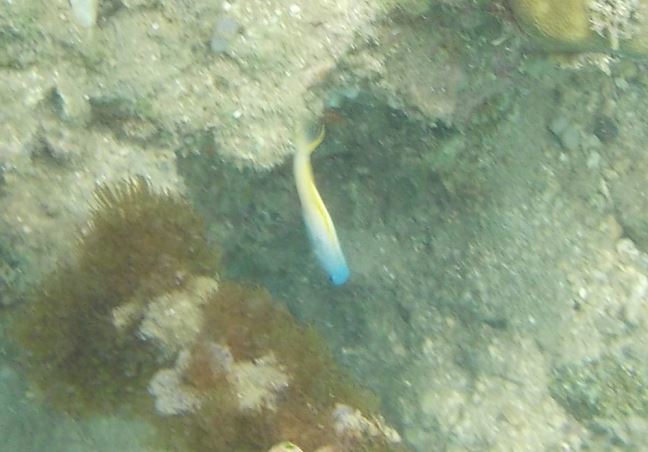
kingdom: Animalia
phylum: Chordata
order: Perciformes
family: Blenniidae
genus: Meiacanthus
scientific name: Meiacanthus atrodorsalis
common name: Eye-lash harptail-blenny
